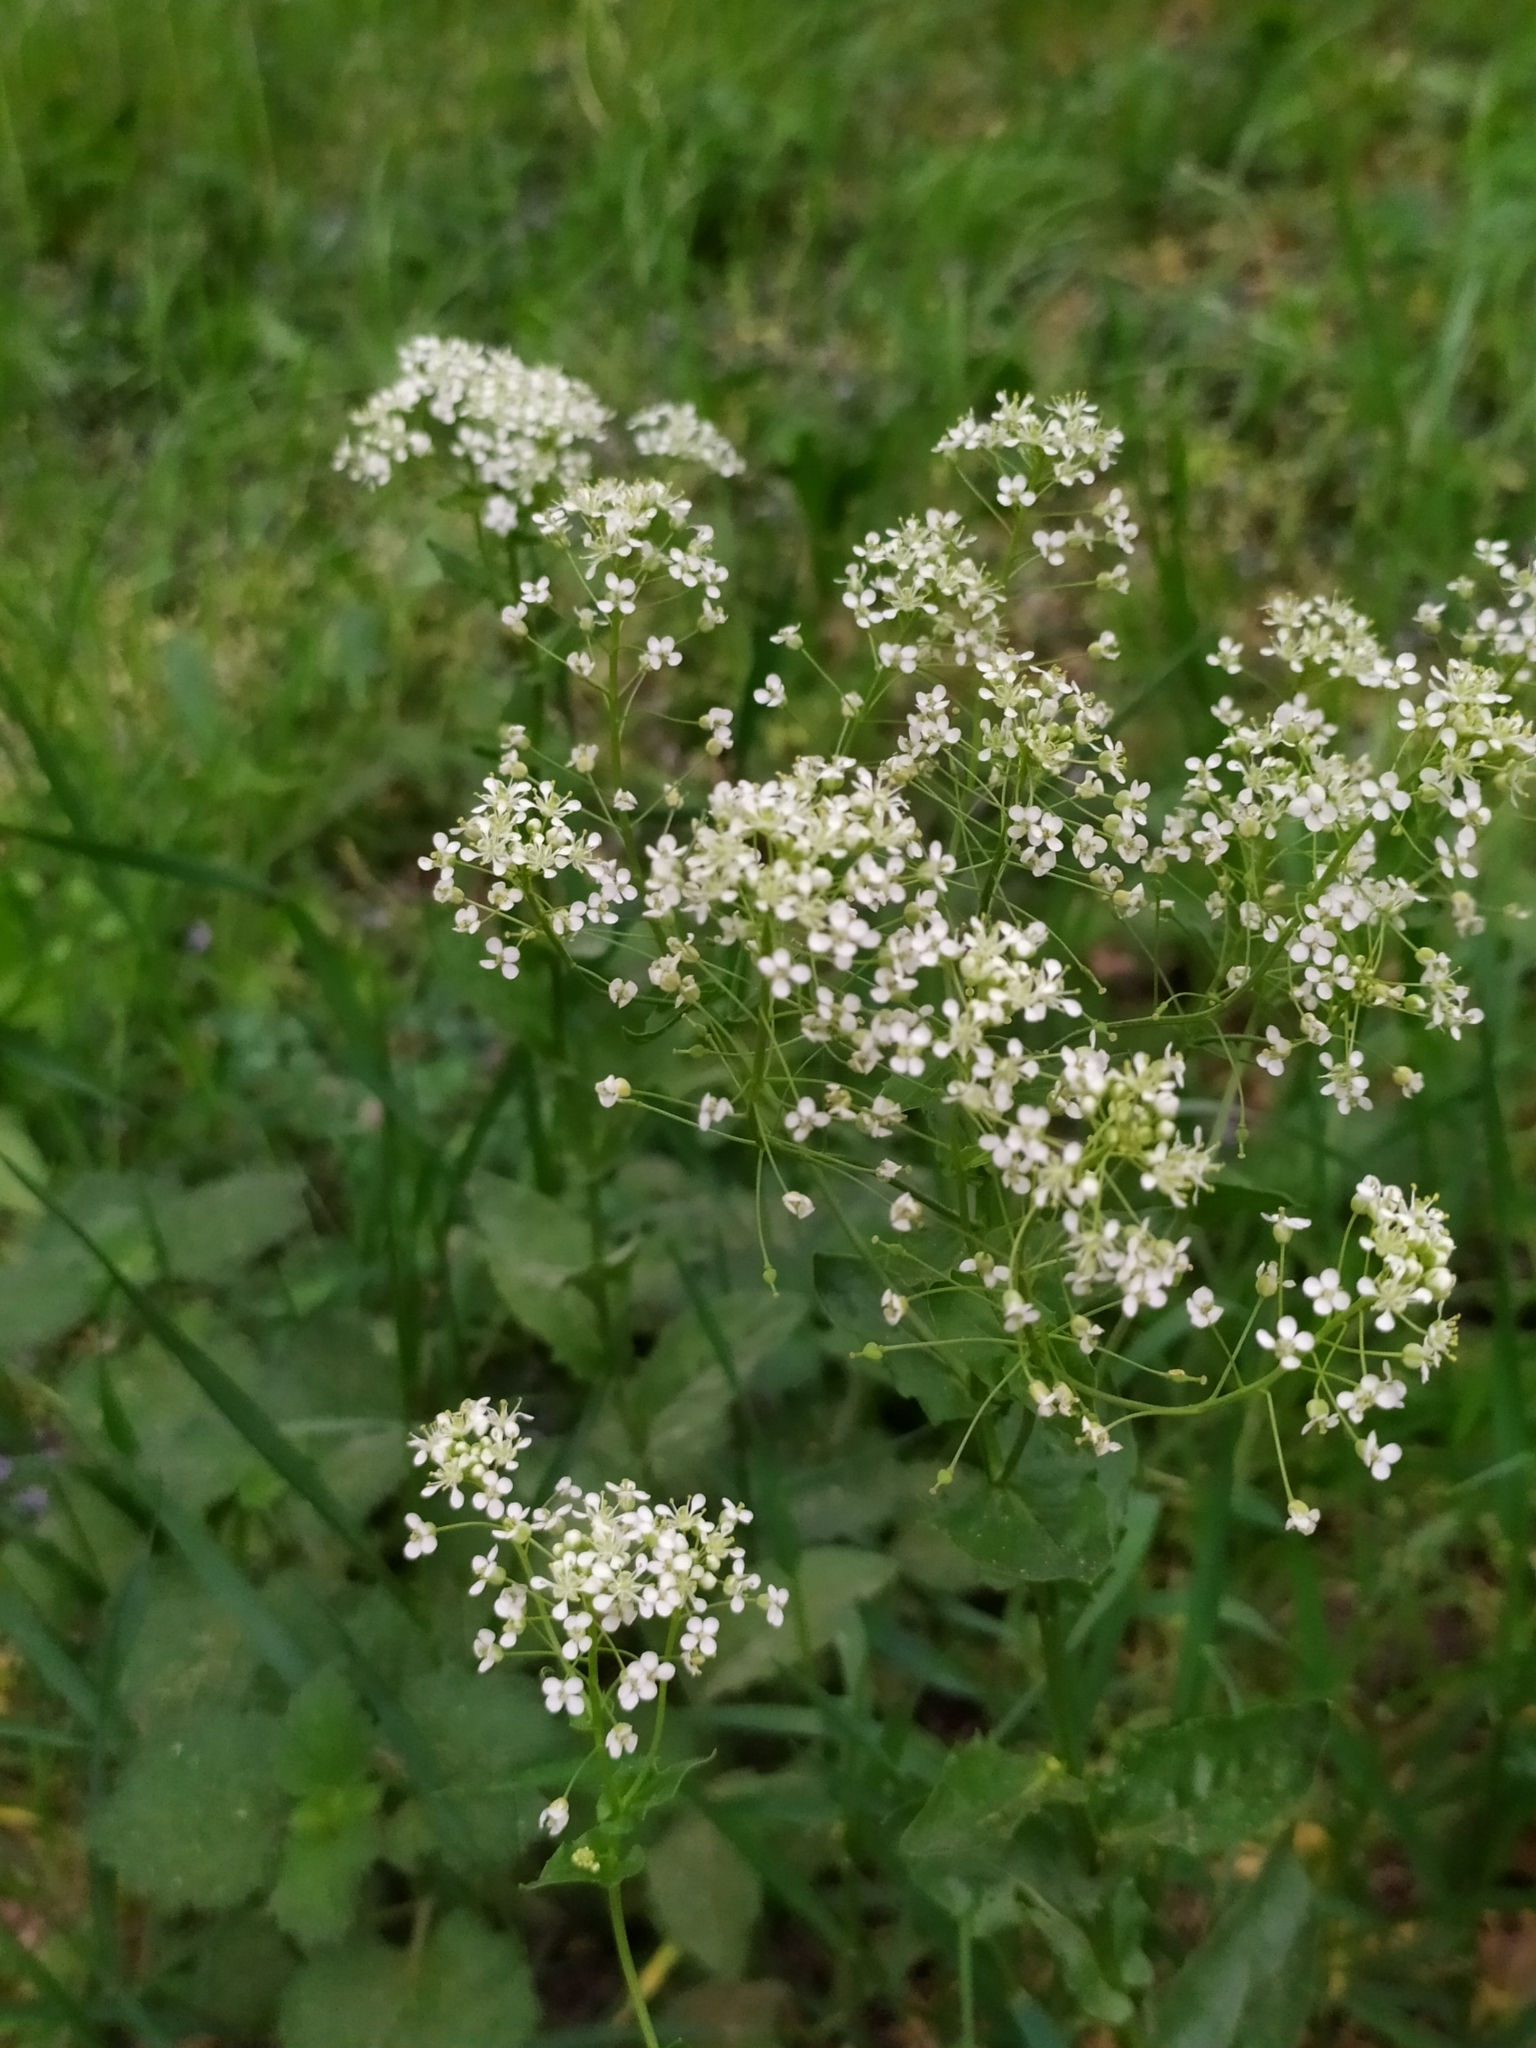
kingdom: Plantae
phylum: Tracheophyta
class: Magnoliopsida
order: Brassicales
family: Brassicaceae
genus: Lepidium
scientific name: Lepidium draba
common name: Hoary cress
